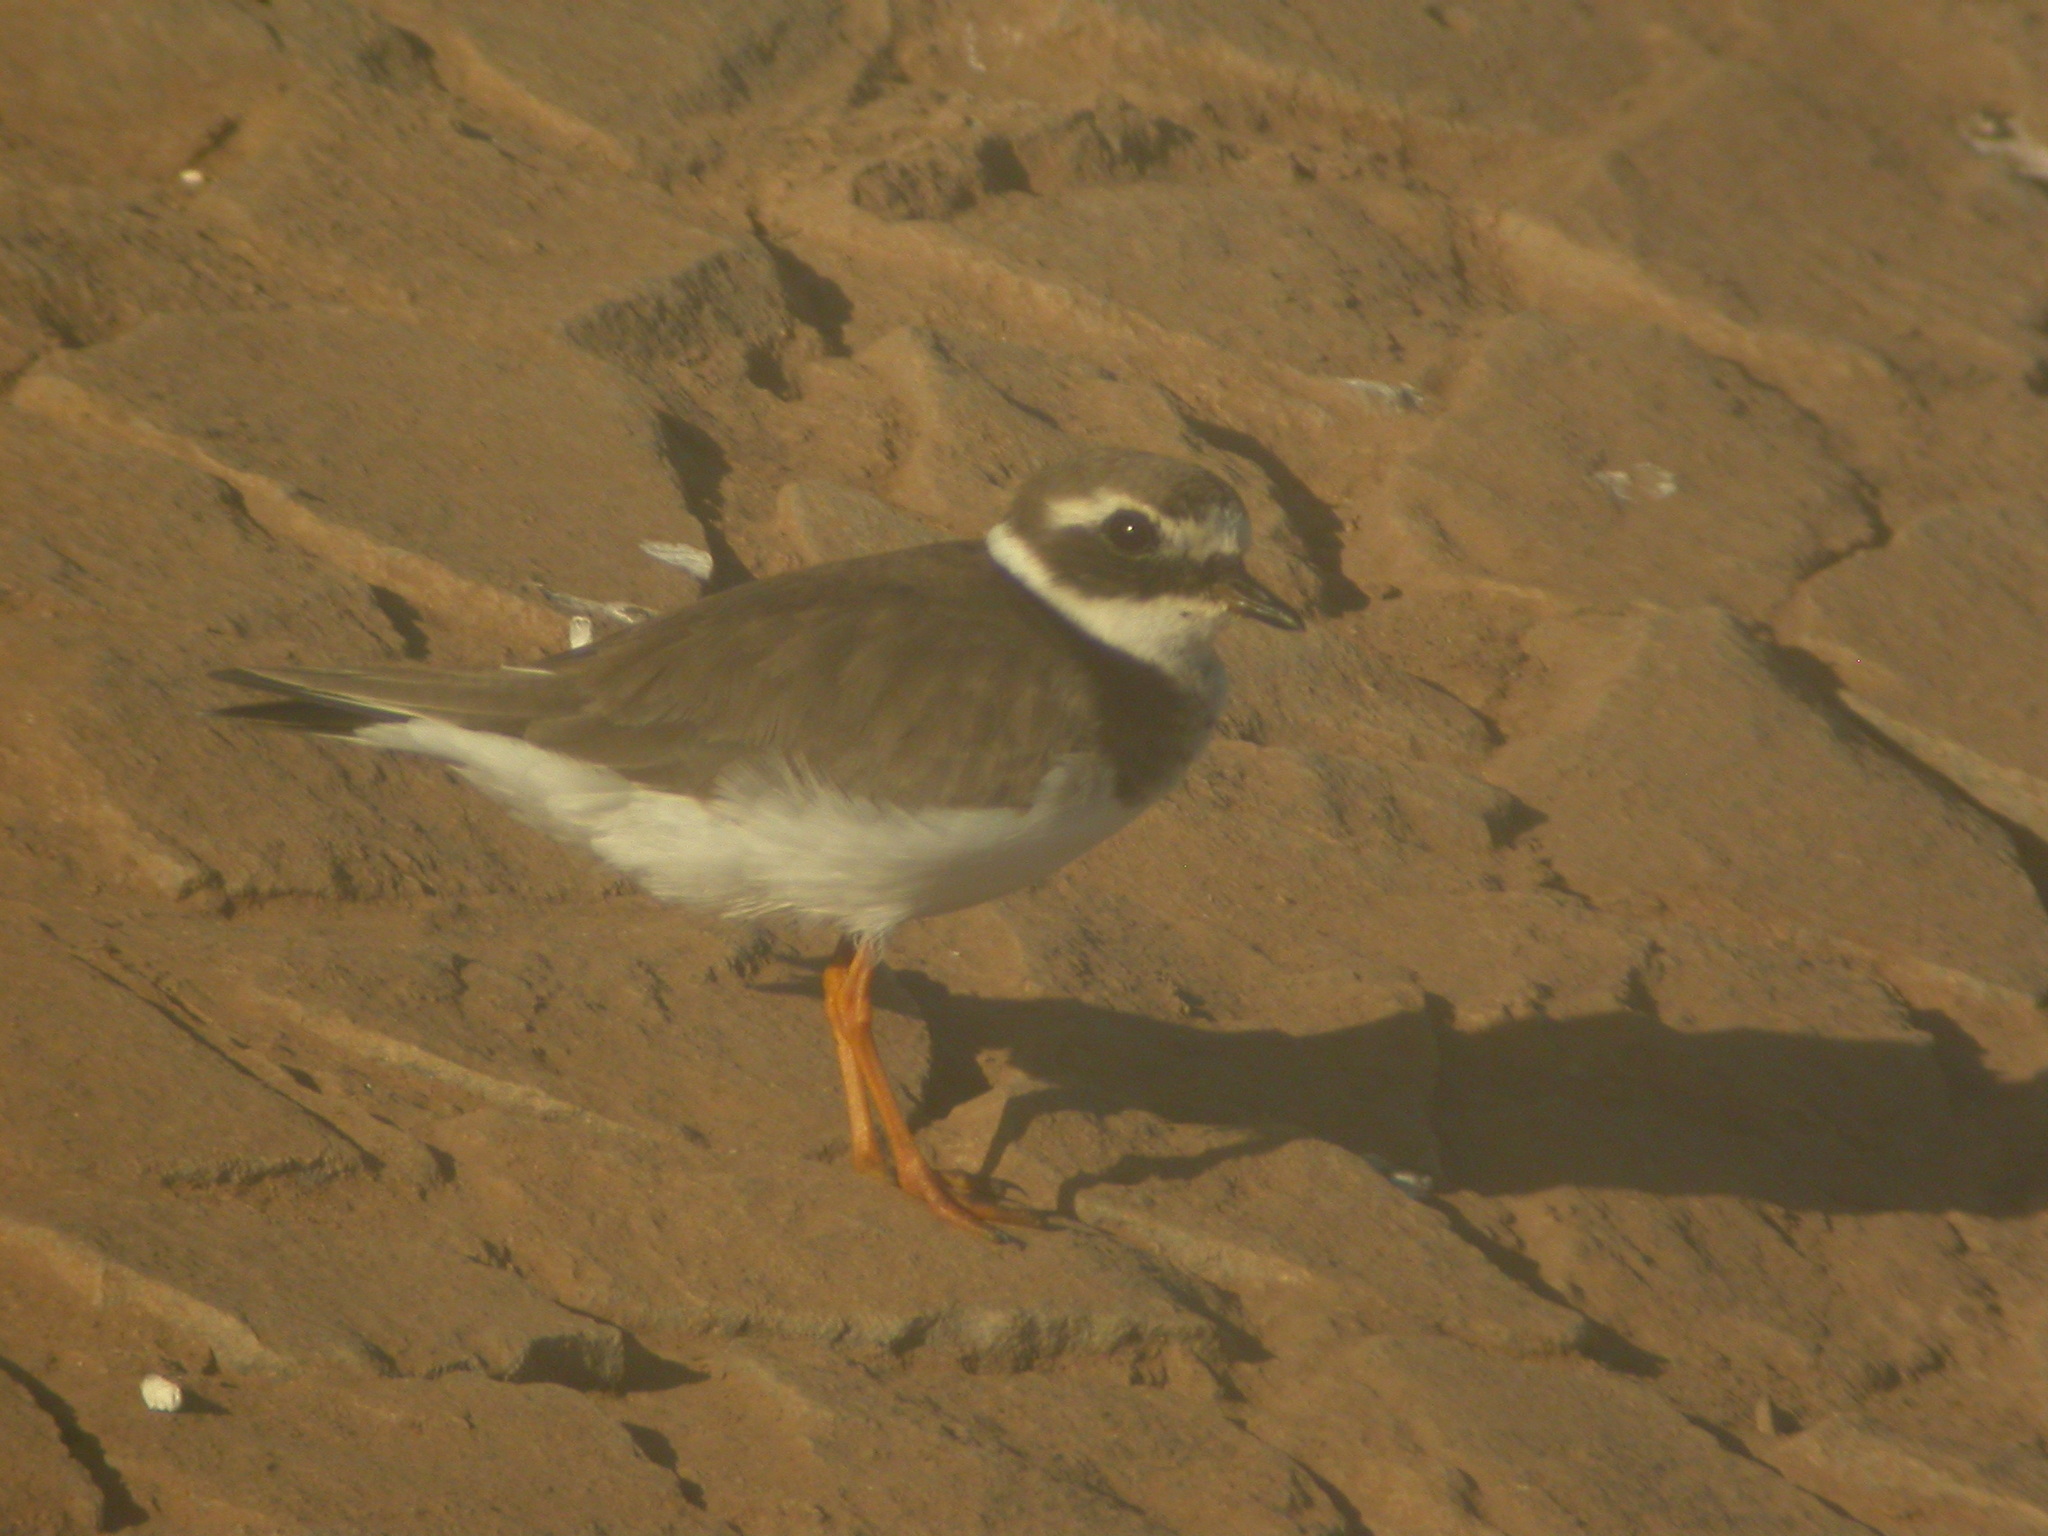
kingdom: Animalia
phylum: Chordata
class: Aves
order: Charadriiformes
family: Charadriidae
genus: Charadrius
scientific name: Charadrius hiaticula
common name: Common ringed plover
